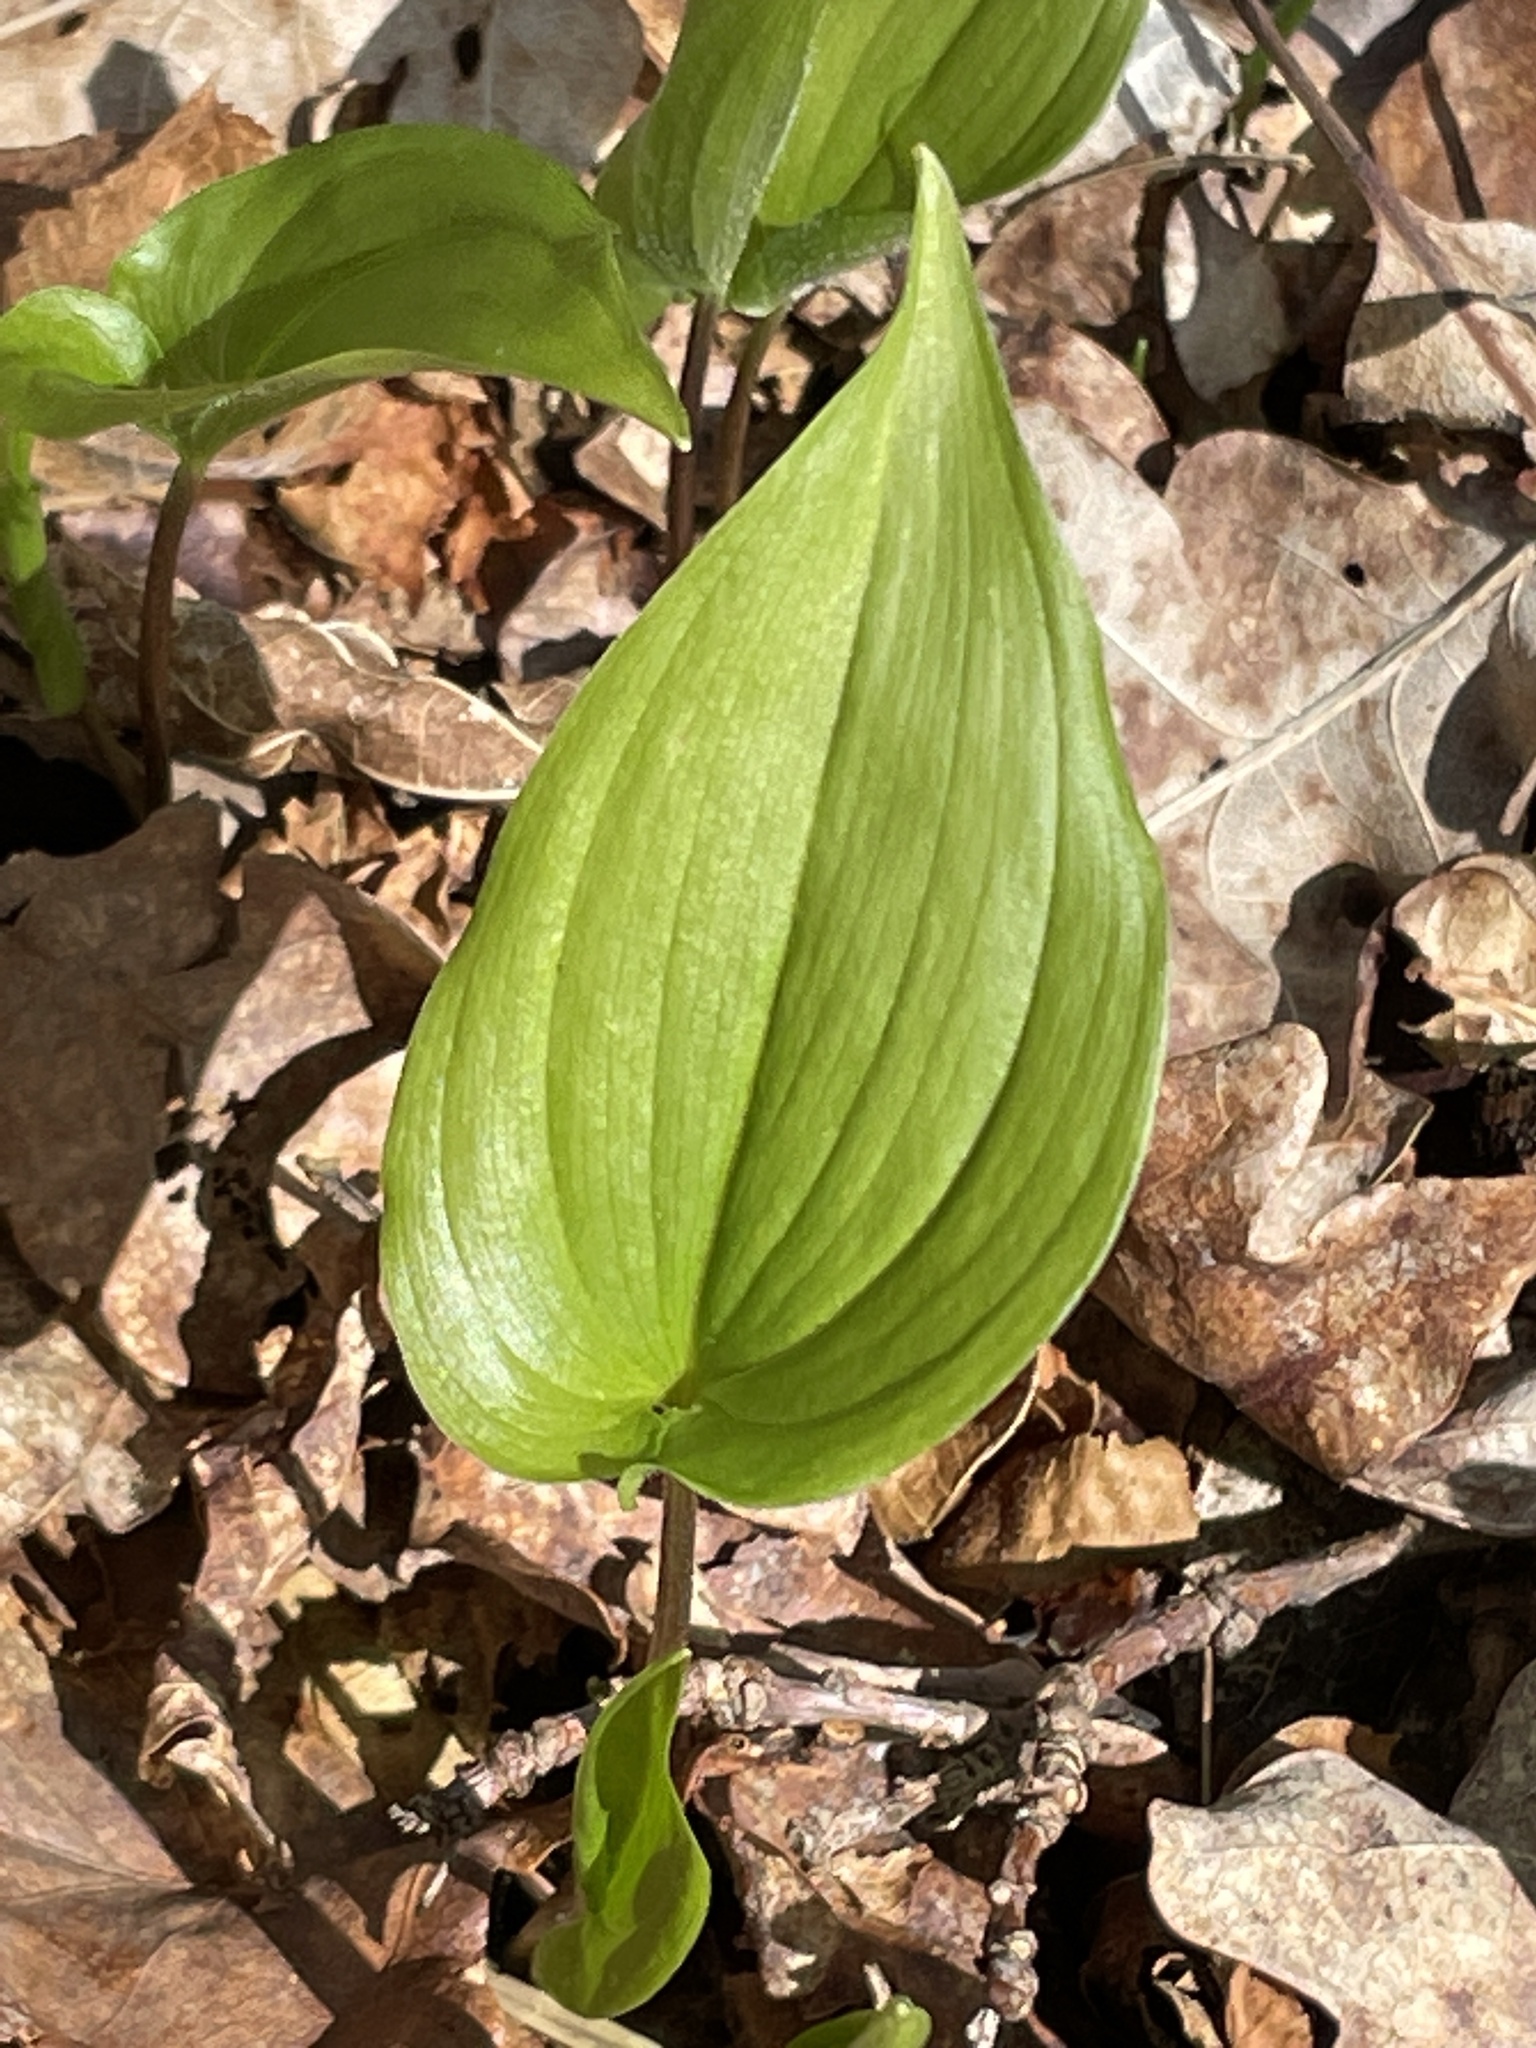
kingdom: Plantae
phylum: Tracheophyta
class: Liliopsida
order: Asparagales
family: Asparagaceae
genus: Maianthemum
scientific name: Maianthemum bifolium
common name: May lily
